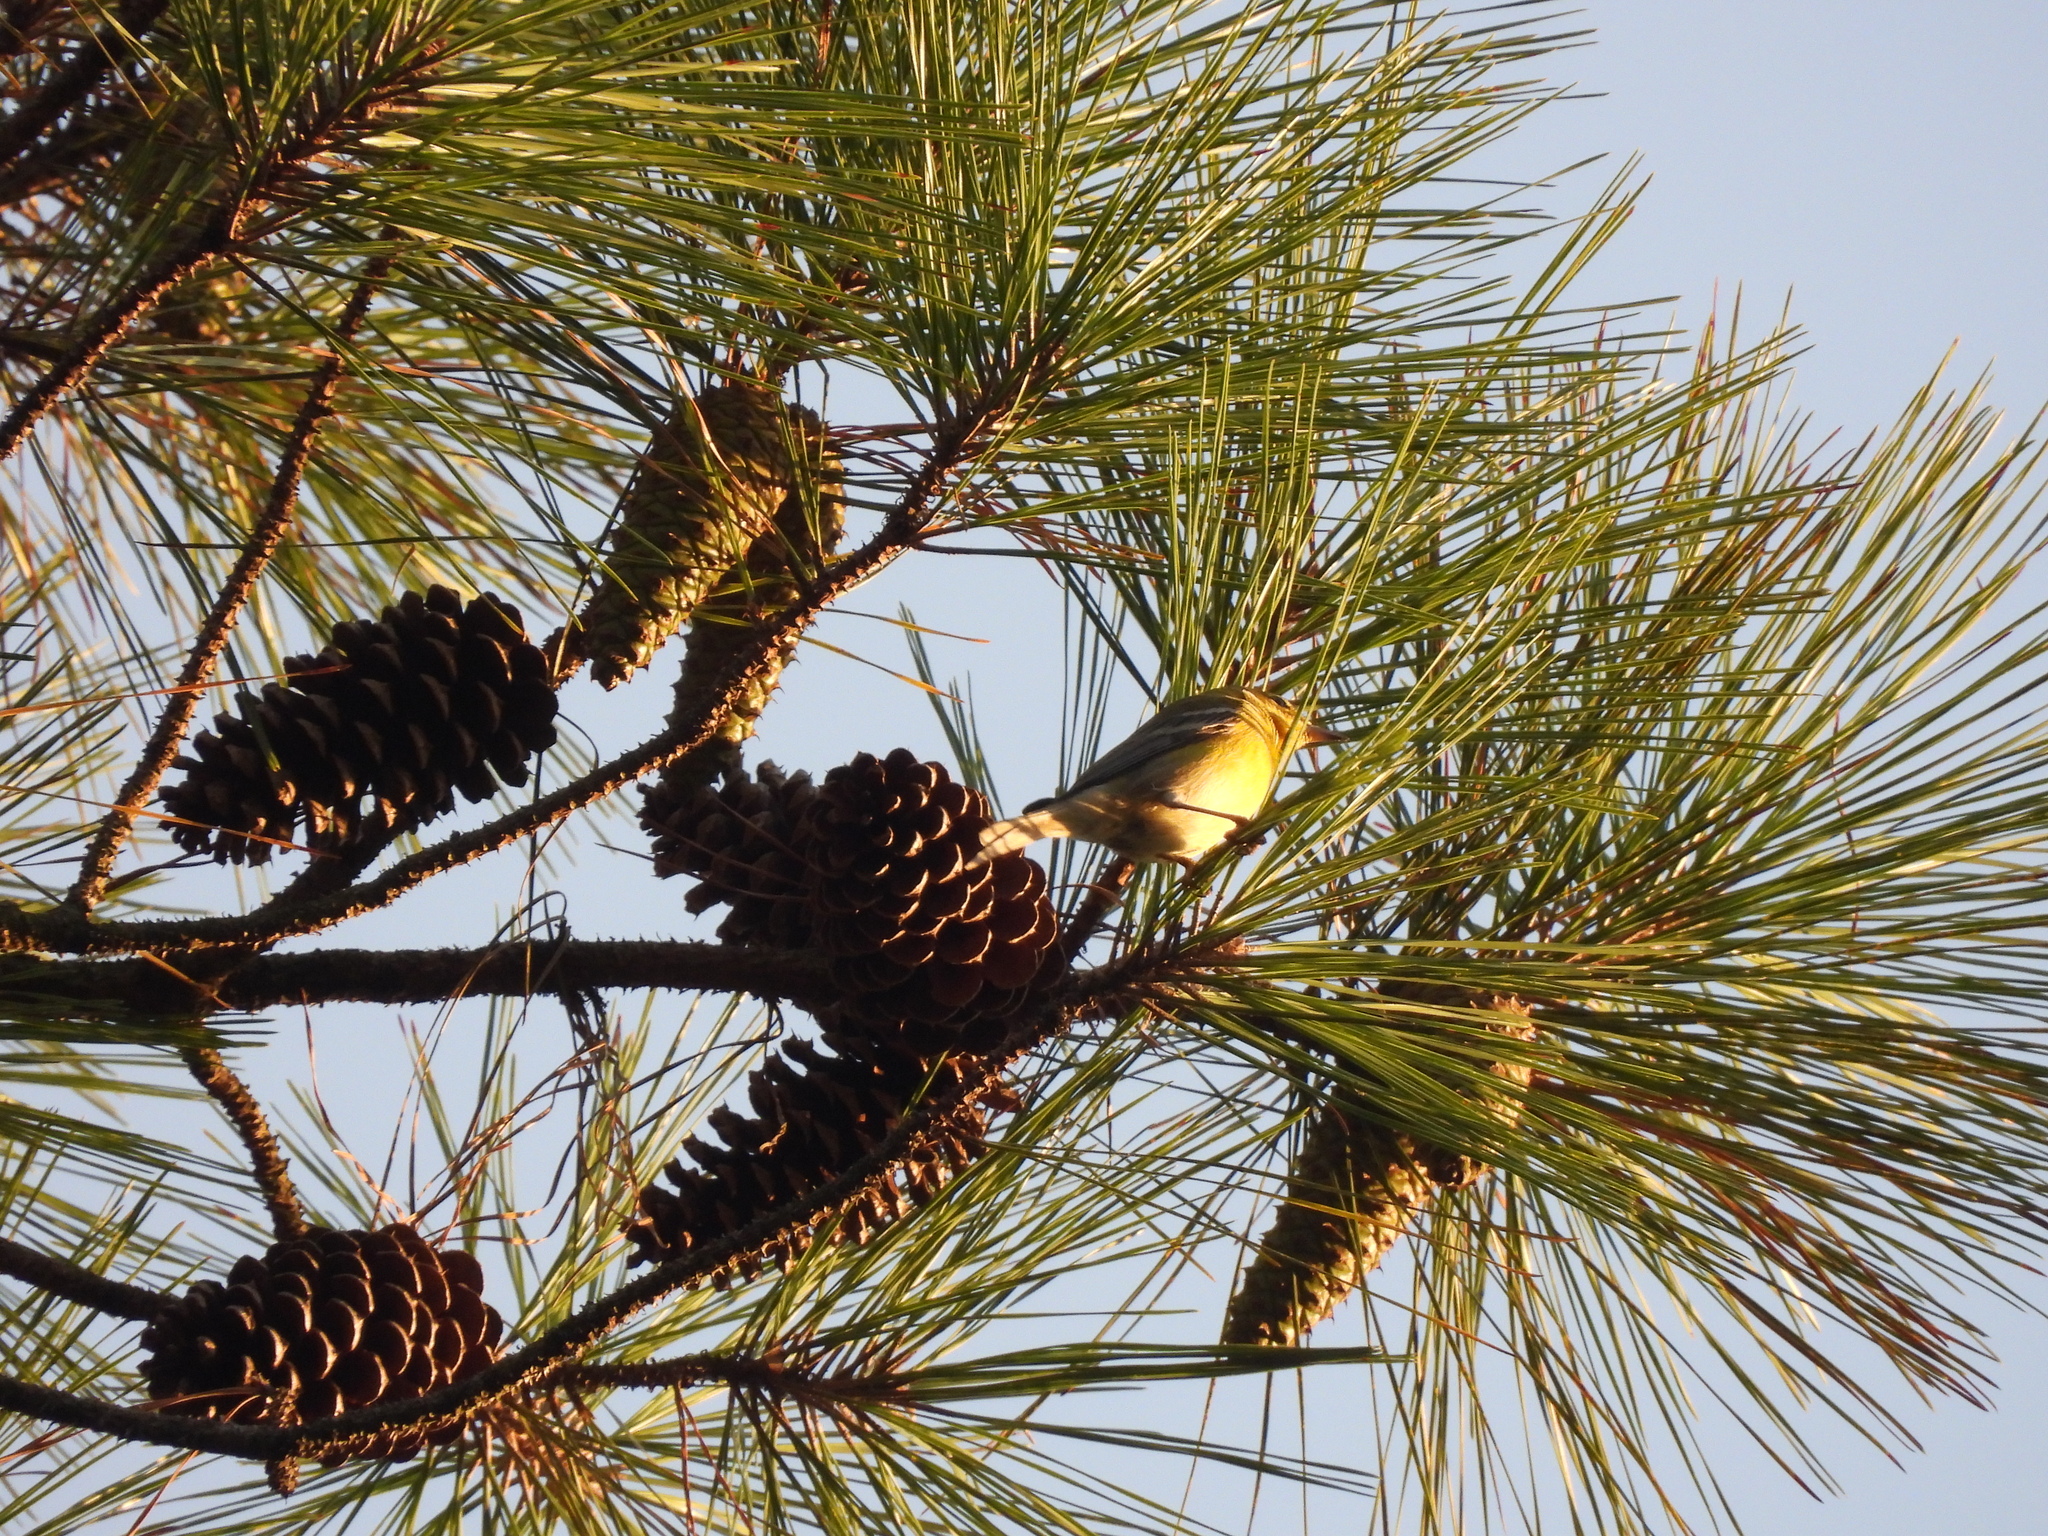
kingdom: Animalia
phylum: Chordata
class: Aves
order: Passeriformes
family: Parulidae
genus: Setophaga
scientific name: Setophaga pinus
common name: Pine warbler
